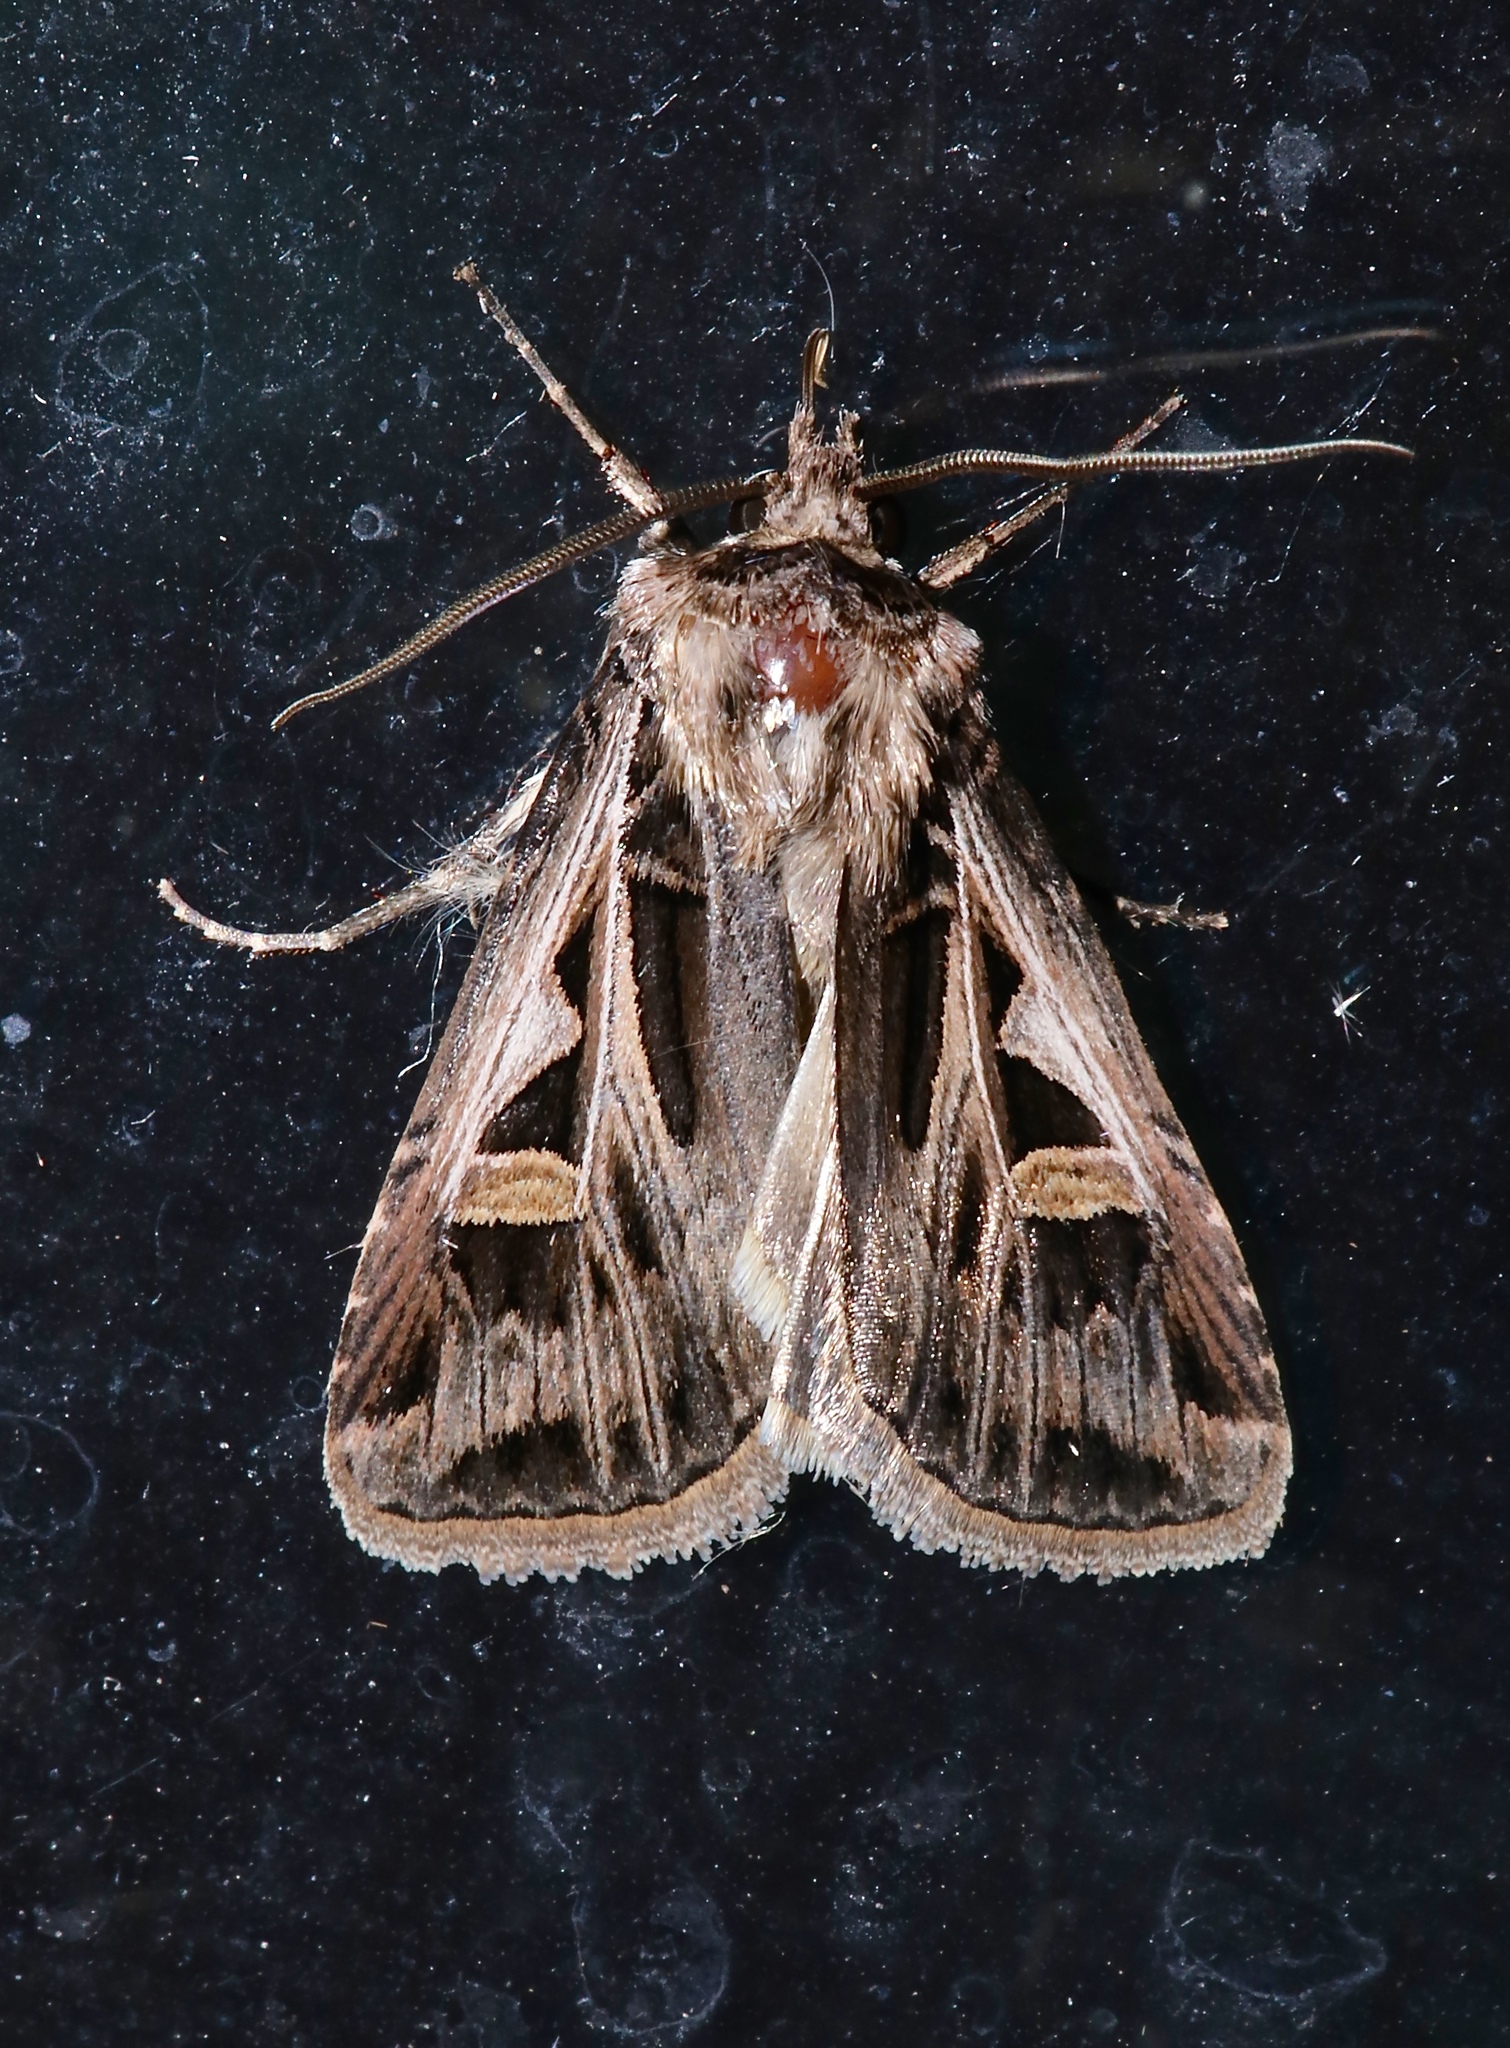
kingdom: Animalia
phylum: Arthropoda
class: Insecta
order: Lepidoptera
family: Noctuidae
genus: Feltia
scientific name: Feltia jaculifera
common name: Dingy cutworm moth
